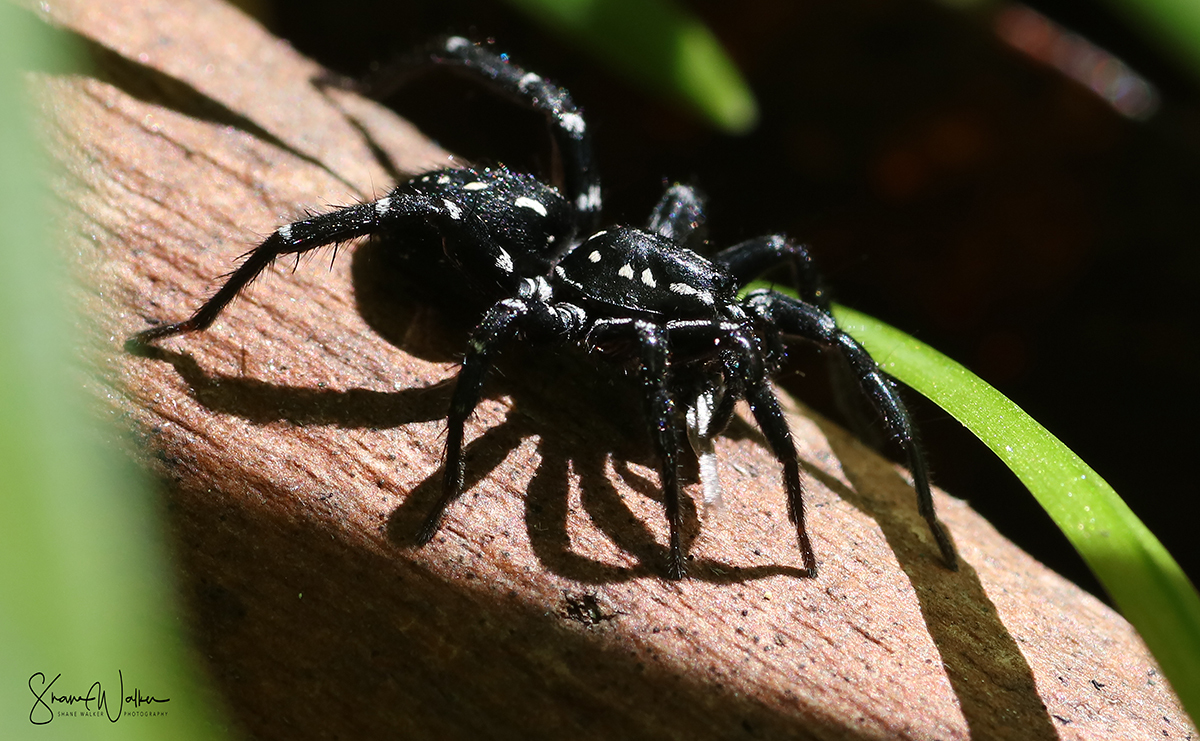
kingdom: Animalia
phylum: Arthropoda
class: Arachnida
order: Araneae
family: Corinnidae
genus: Nyssus
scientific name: Nyssus albopunctatus
